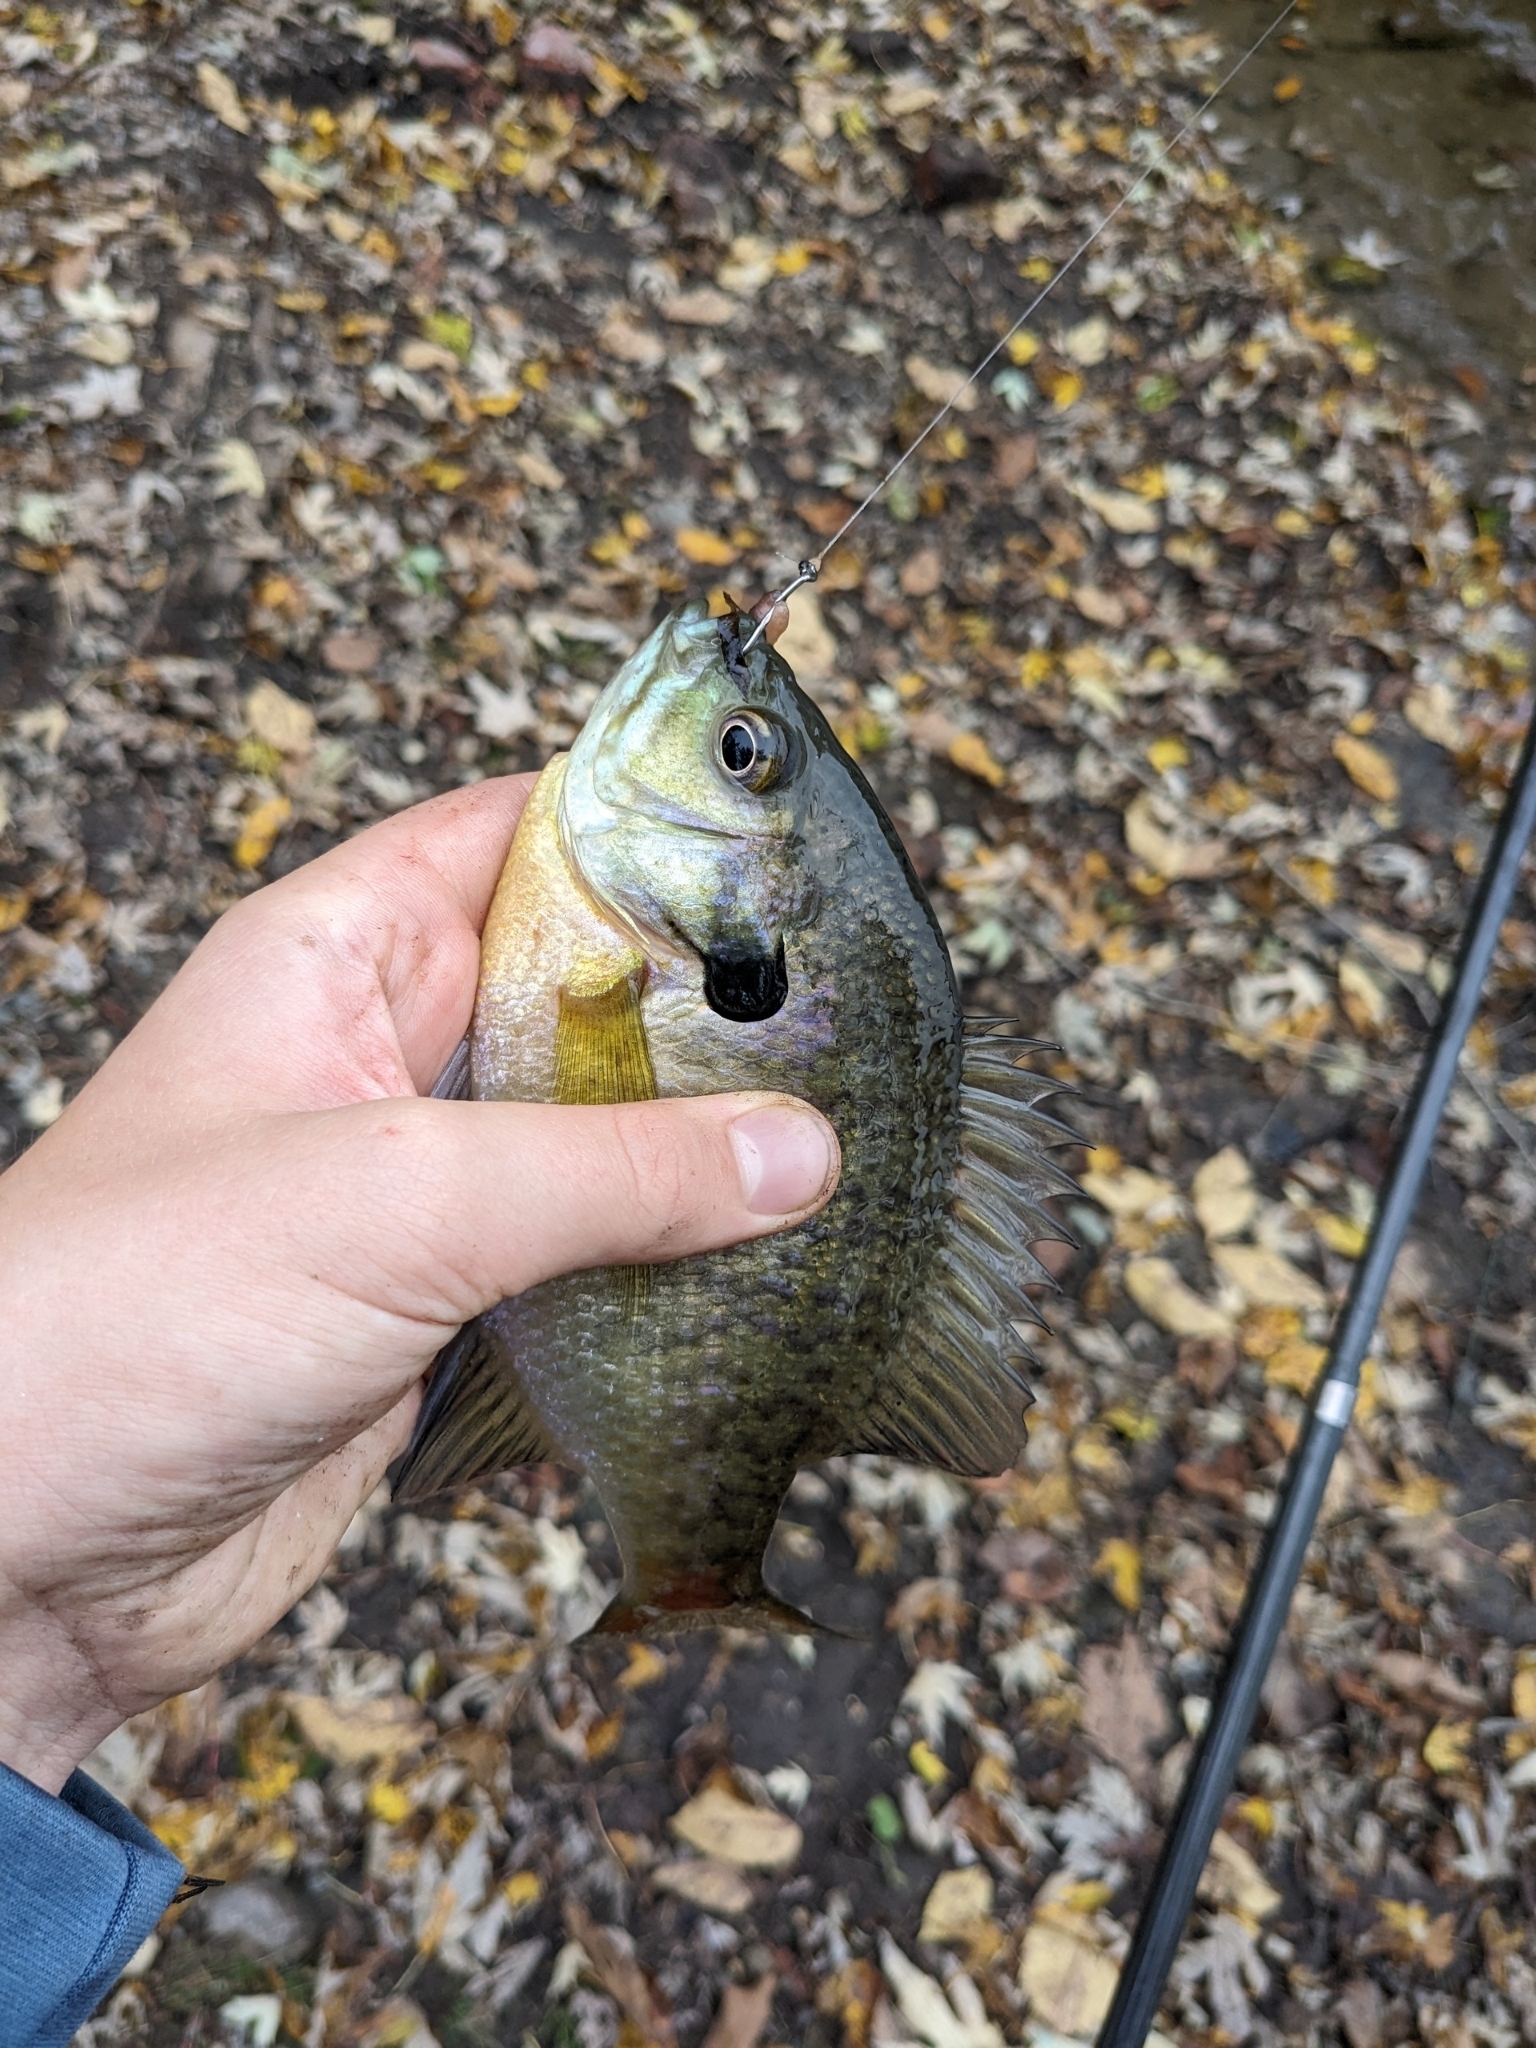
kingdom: Animalia
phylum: Chordata
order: Perciformes
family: Centrarchidae
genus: Lepomis
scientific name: Lepomis macrochirus
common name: Bluegill
